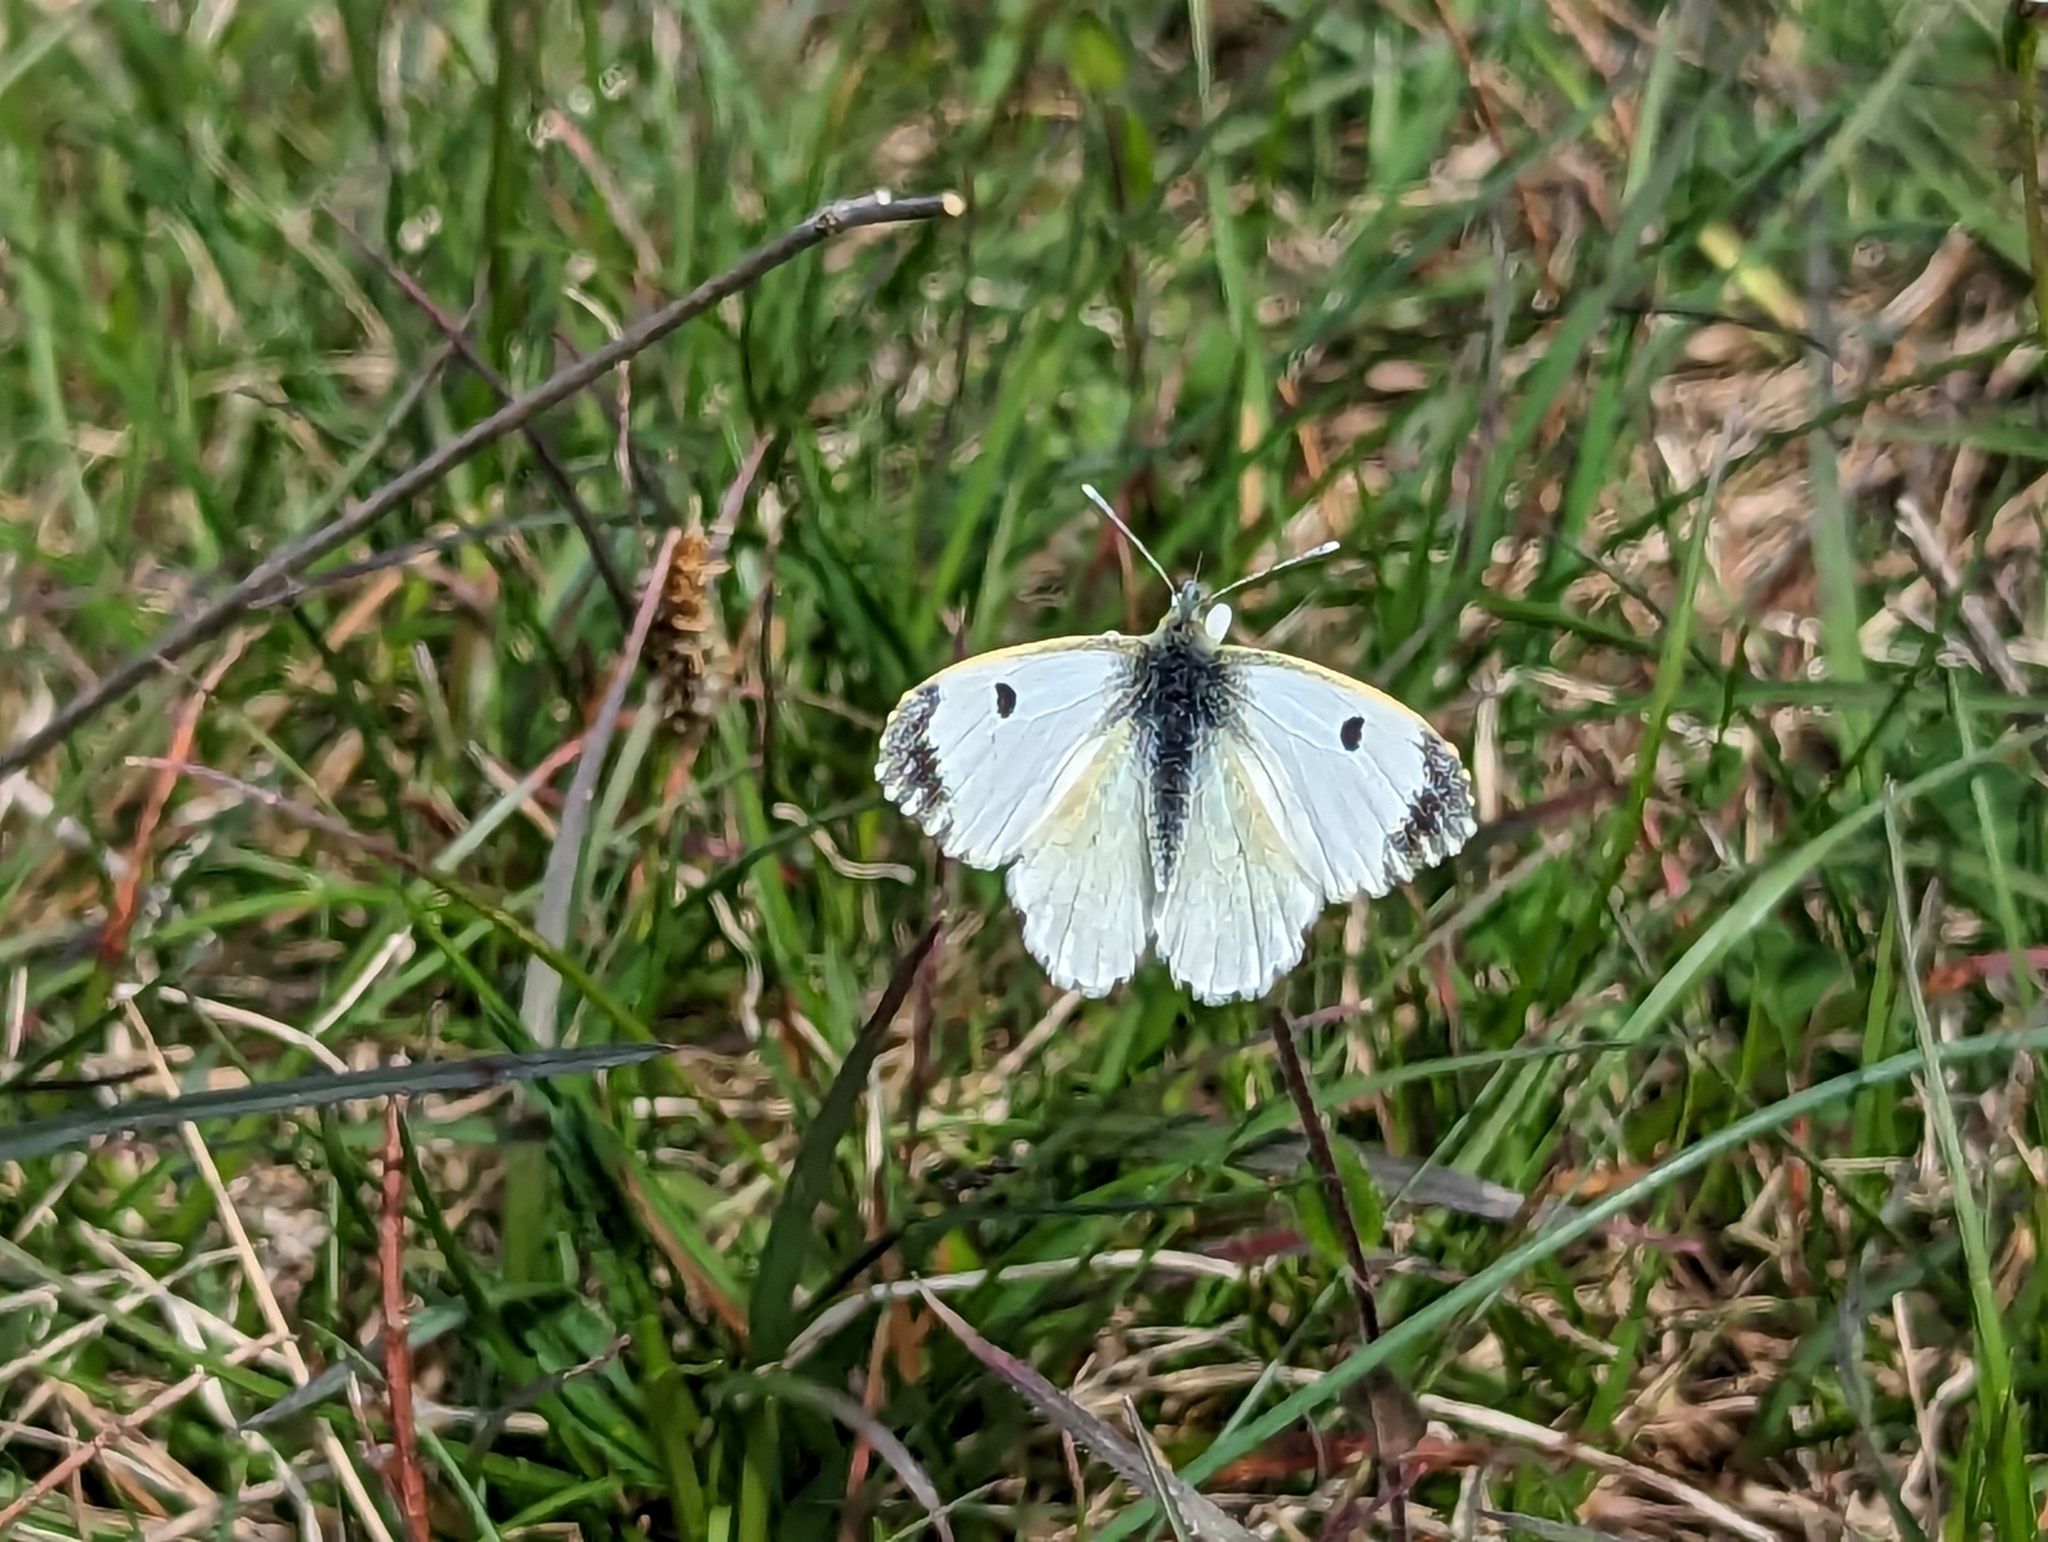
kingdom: Animalia
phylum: Arthropoda
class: Insecta
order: Lepidoptera
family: Pieridae
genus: Anthocharis
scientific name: Anthocharis cardamines
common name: Orange-tip
